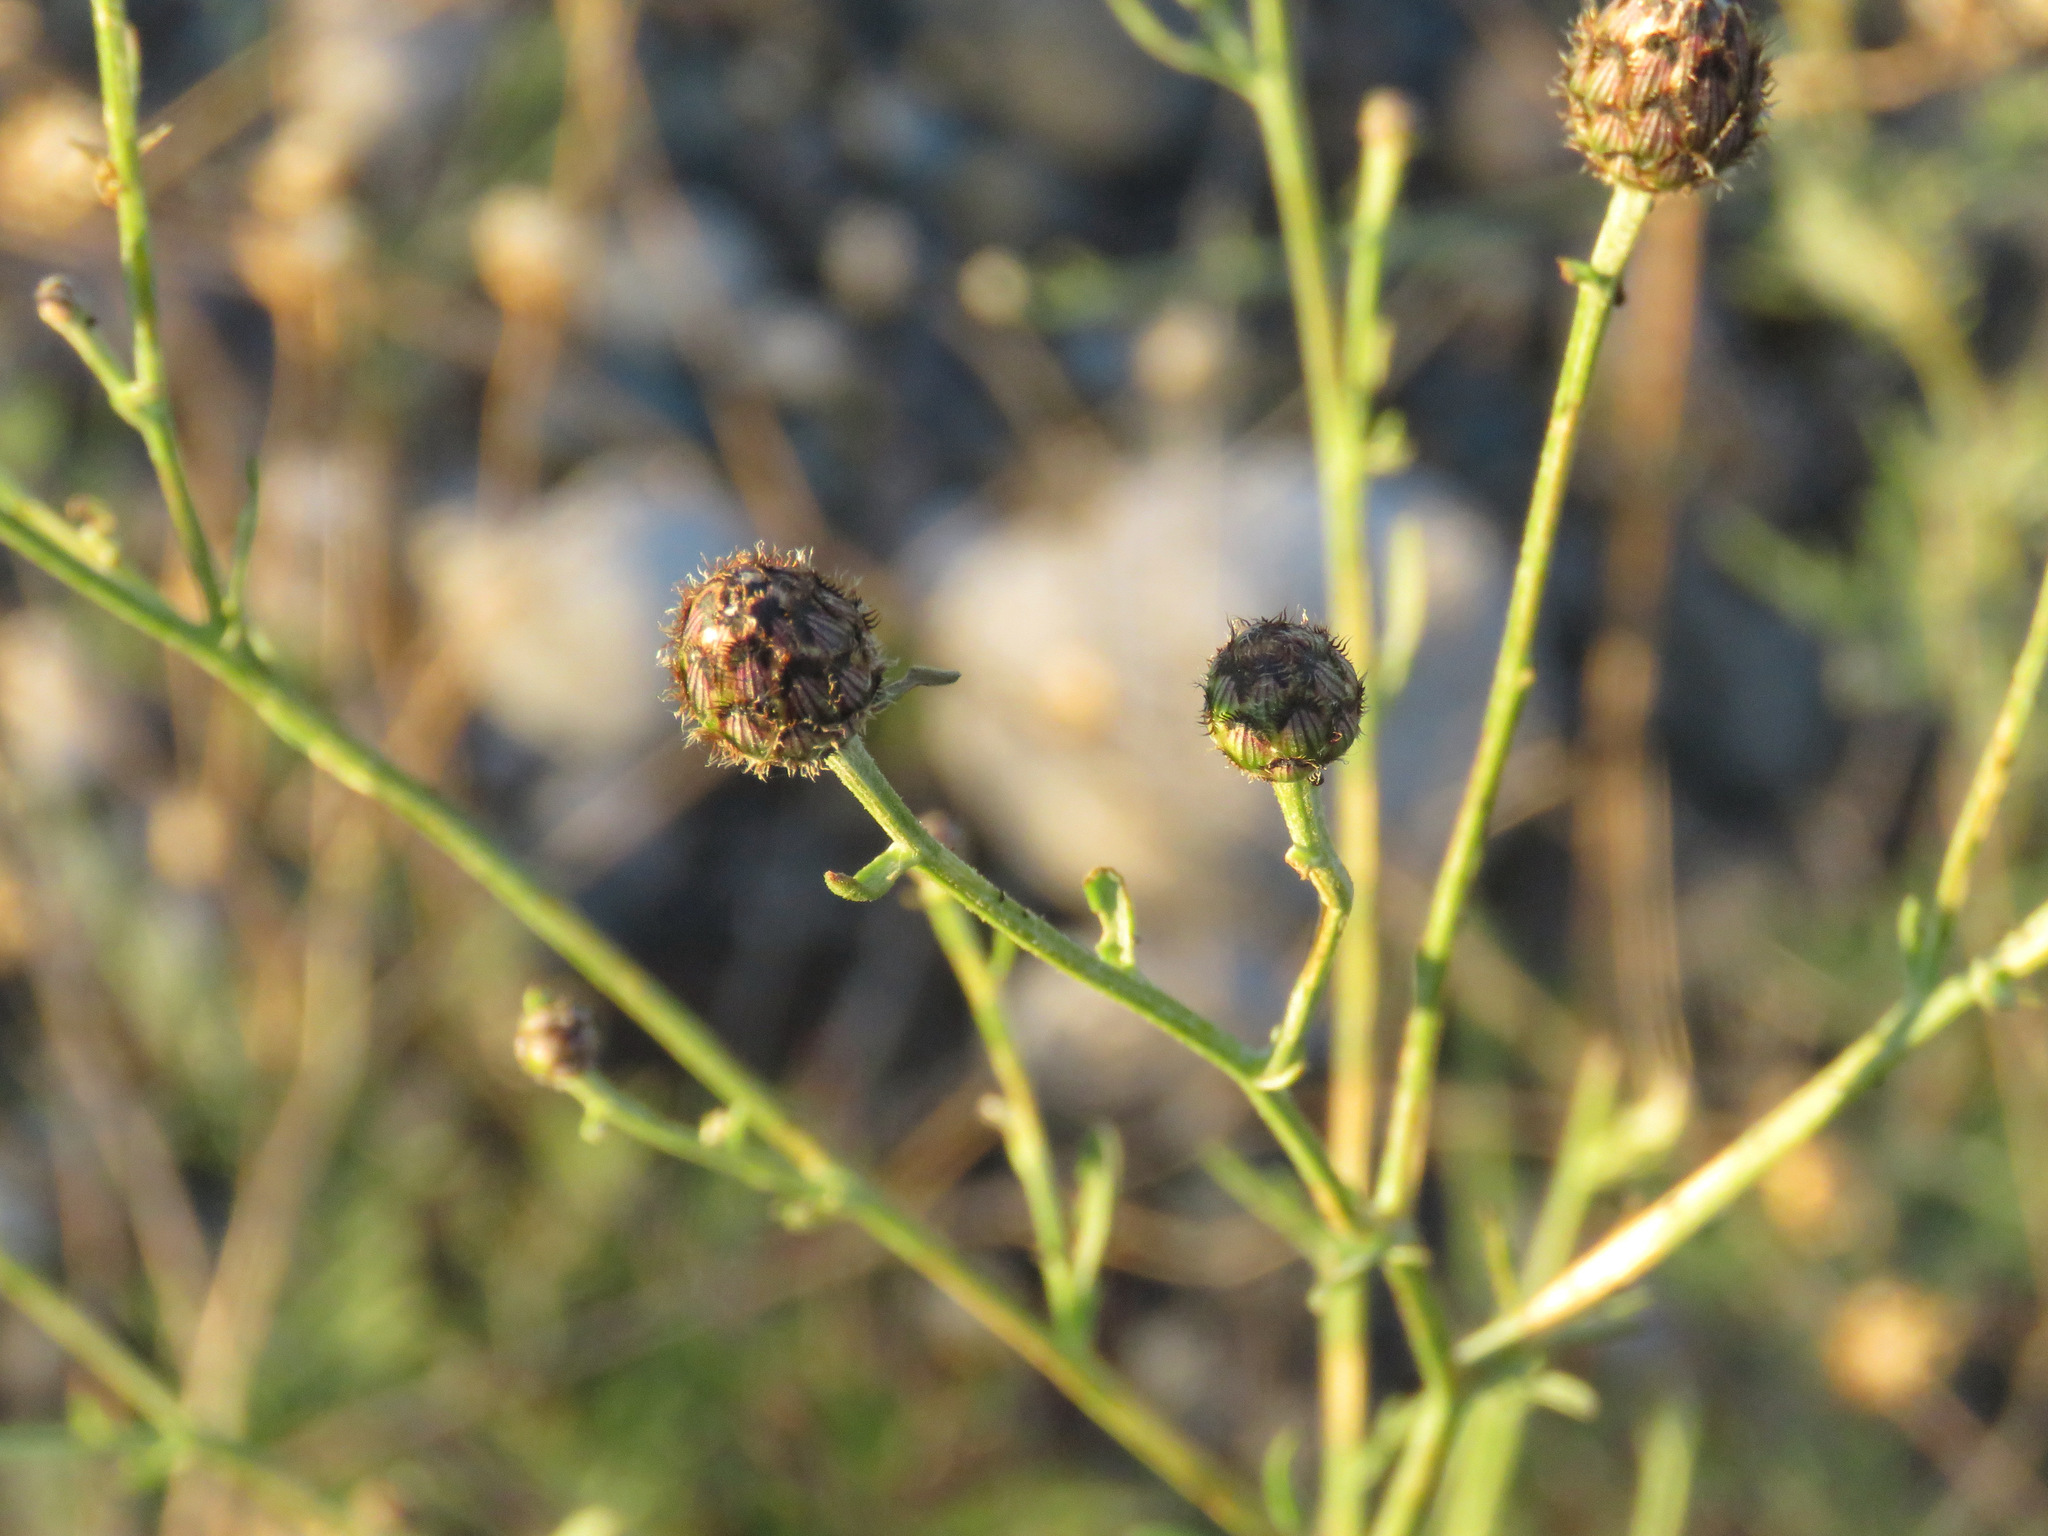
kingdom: Plantae
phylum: Tracheophyta
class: Magnoliopsida
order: Asterales
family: Asteraceae
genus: Centaurea
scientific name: Centaurea stoebe
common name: Spotted knapweed
